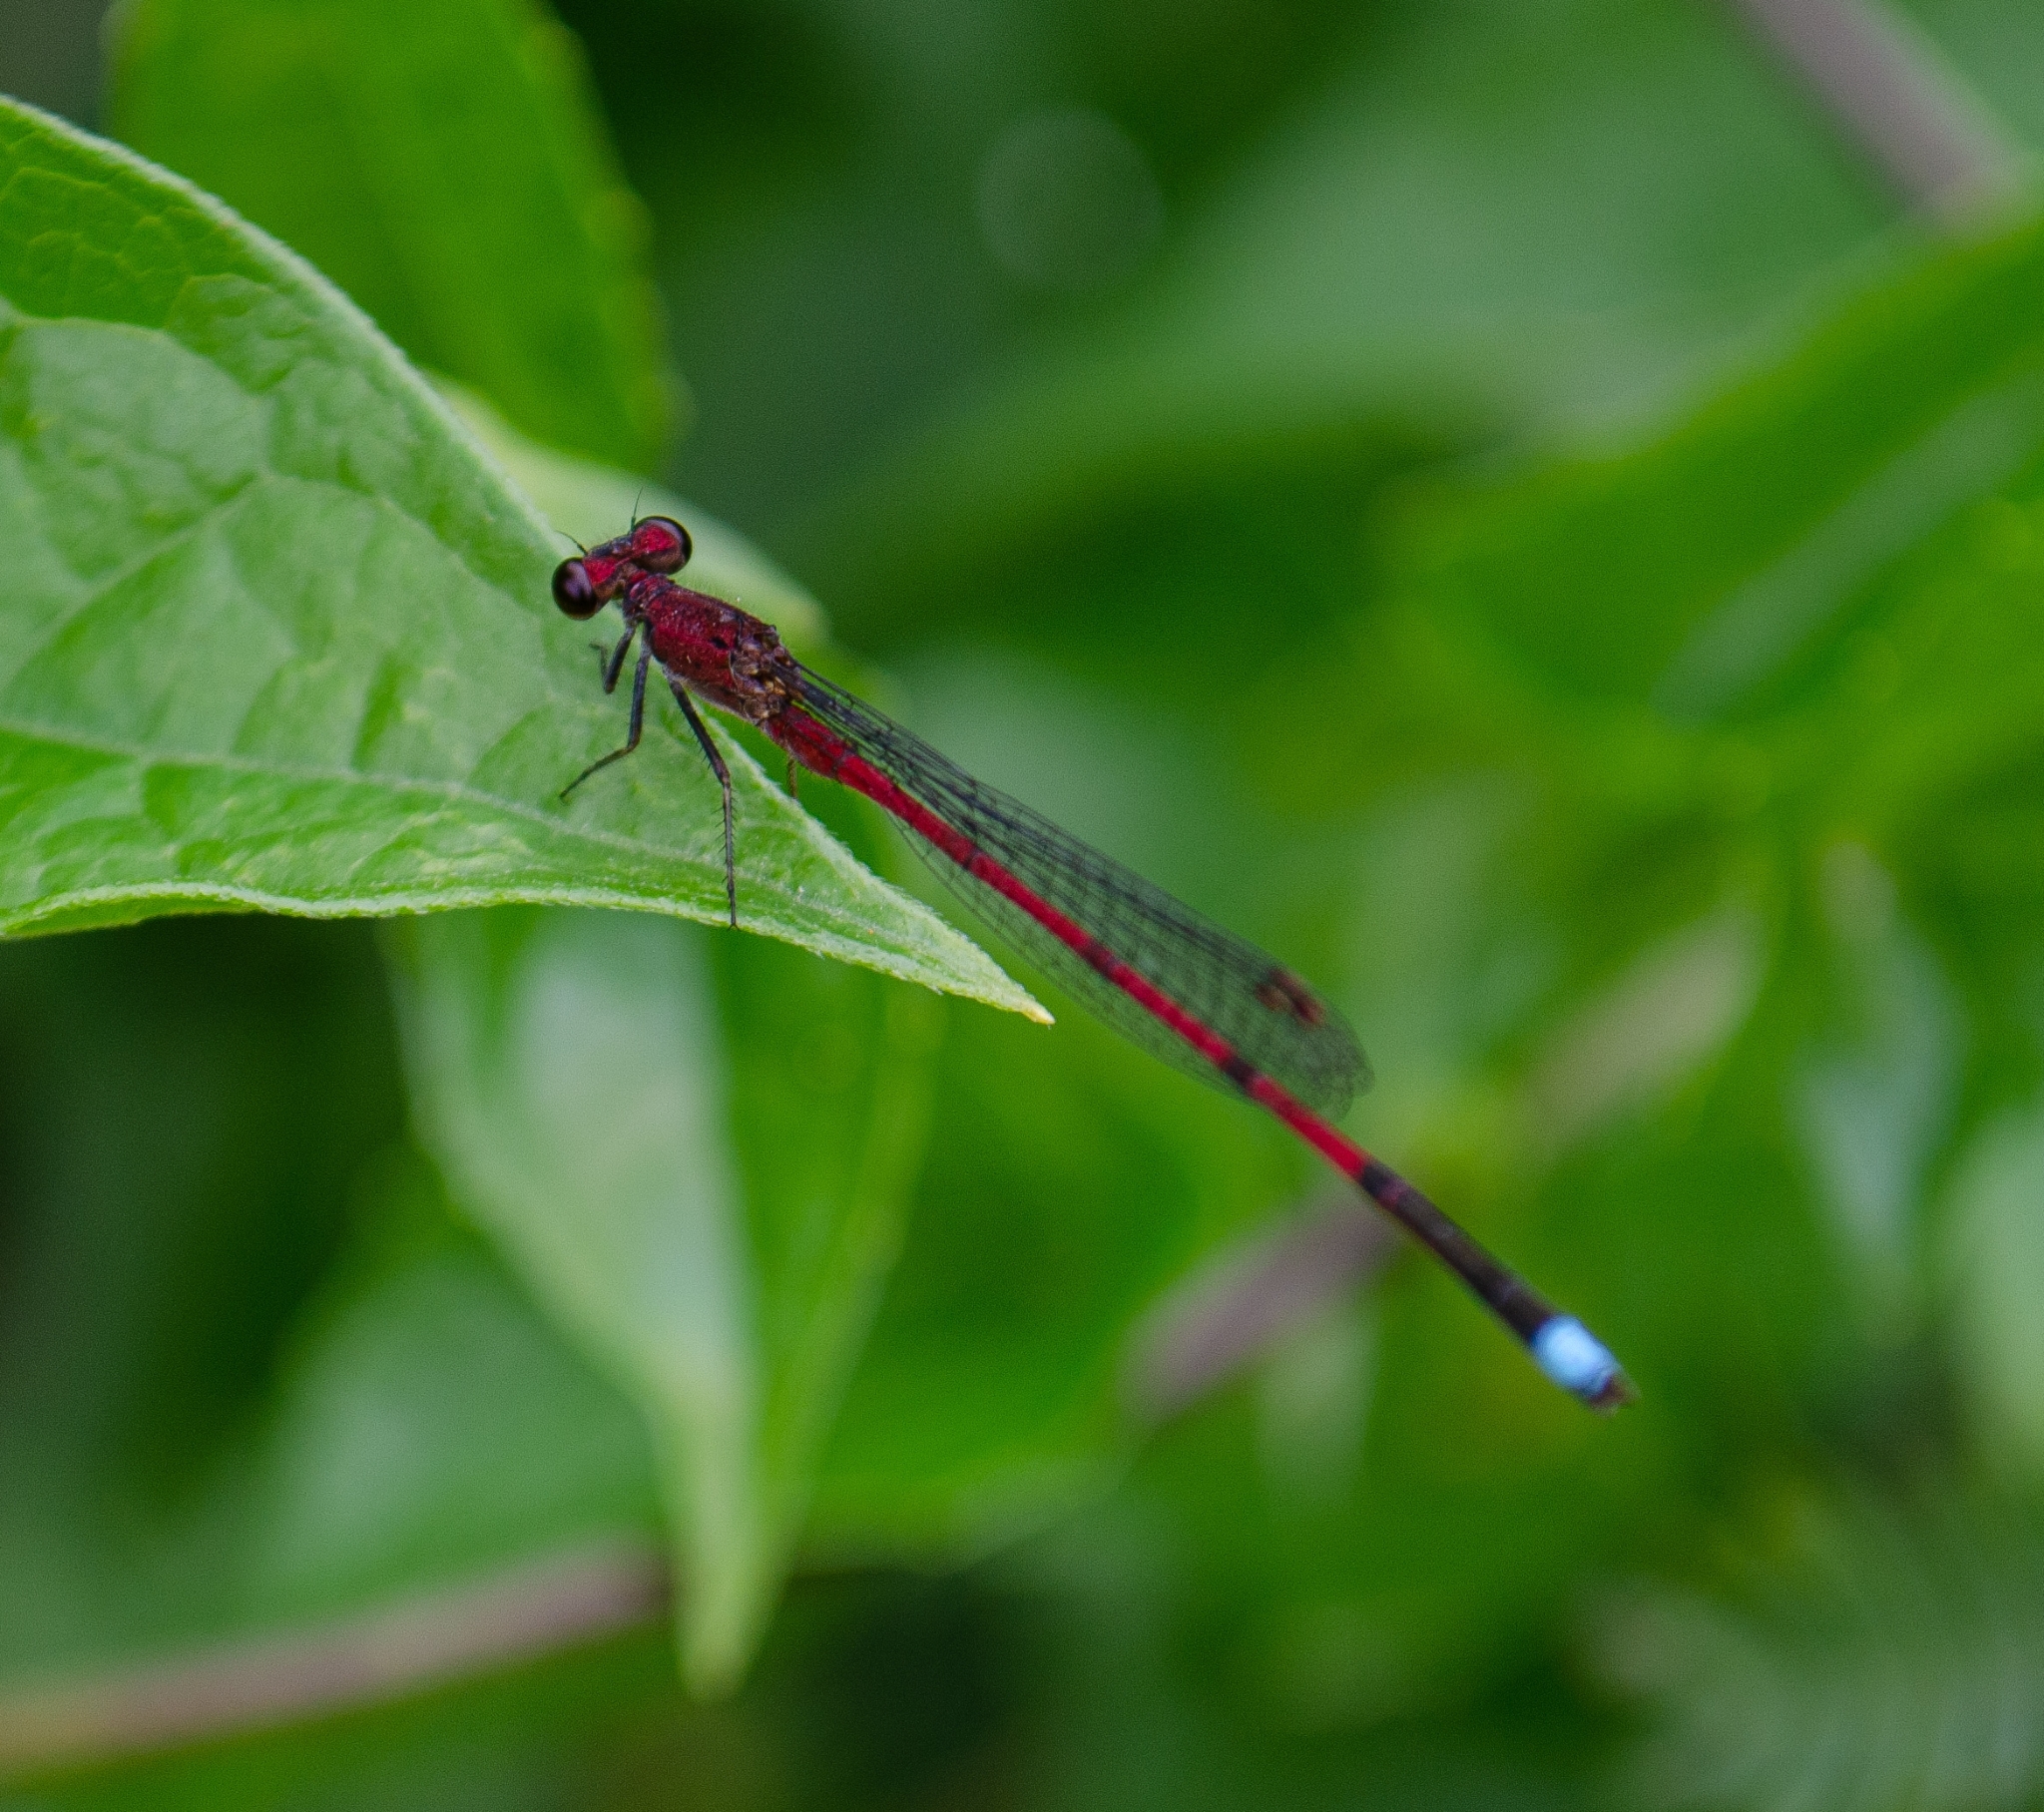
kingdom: Animalia
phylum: Arthropoda
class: Insecta
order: Odonata
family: Coenagrionidae
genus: Oxyagrion
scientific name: Oxyagrion terminale
